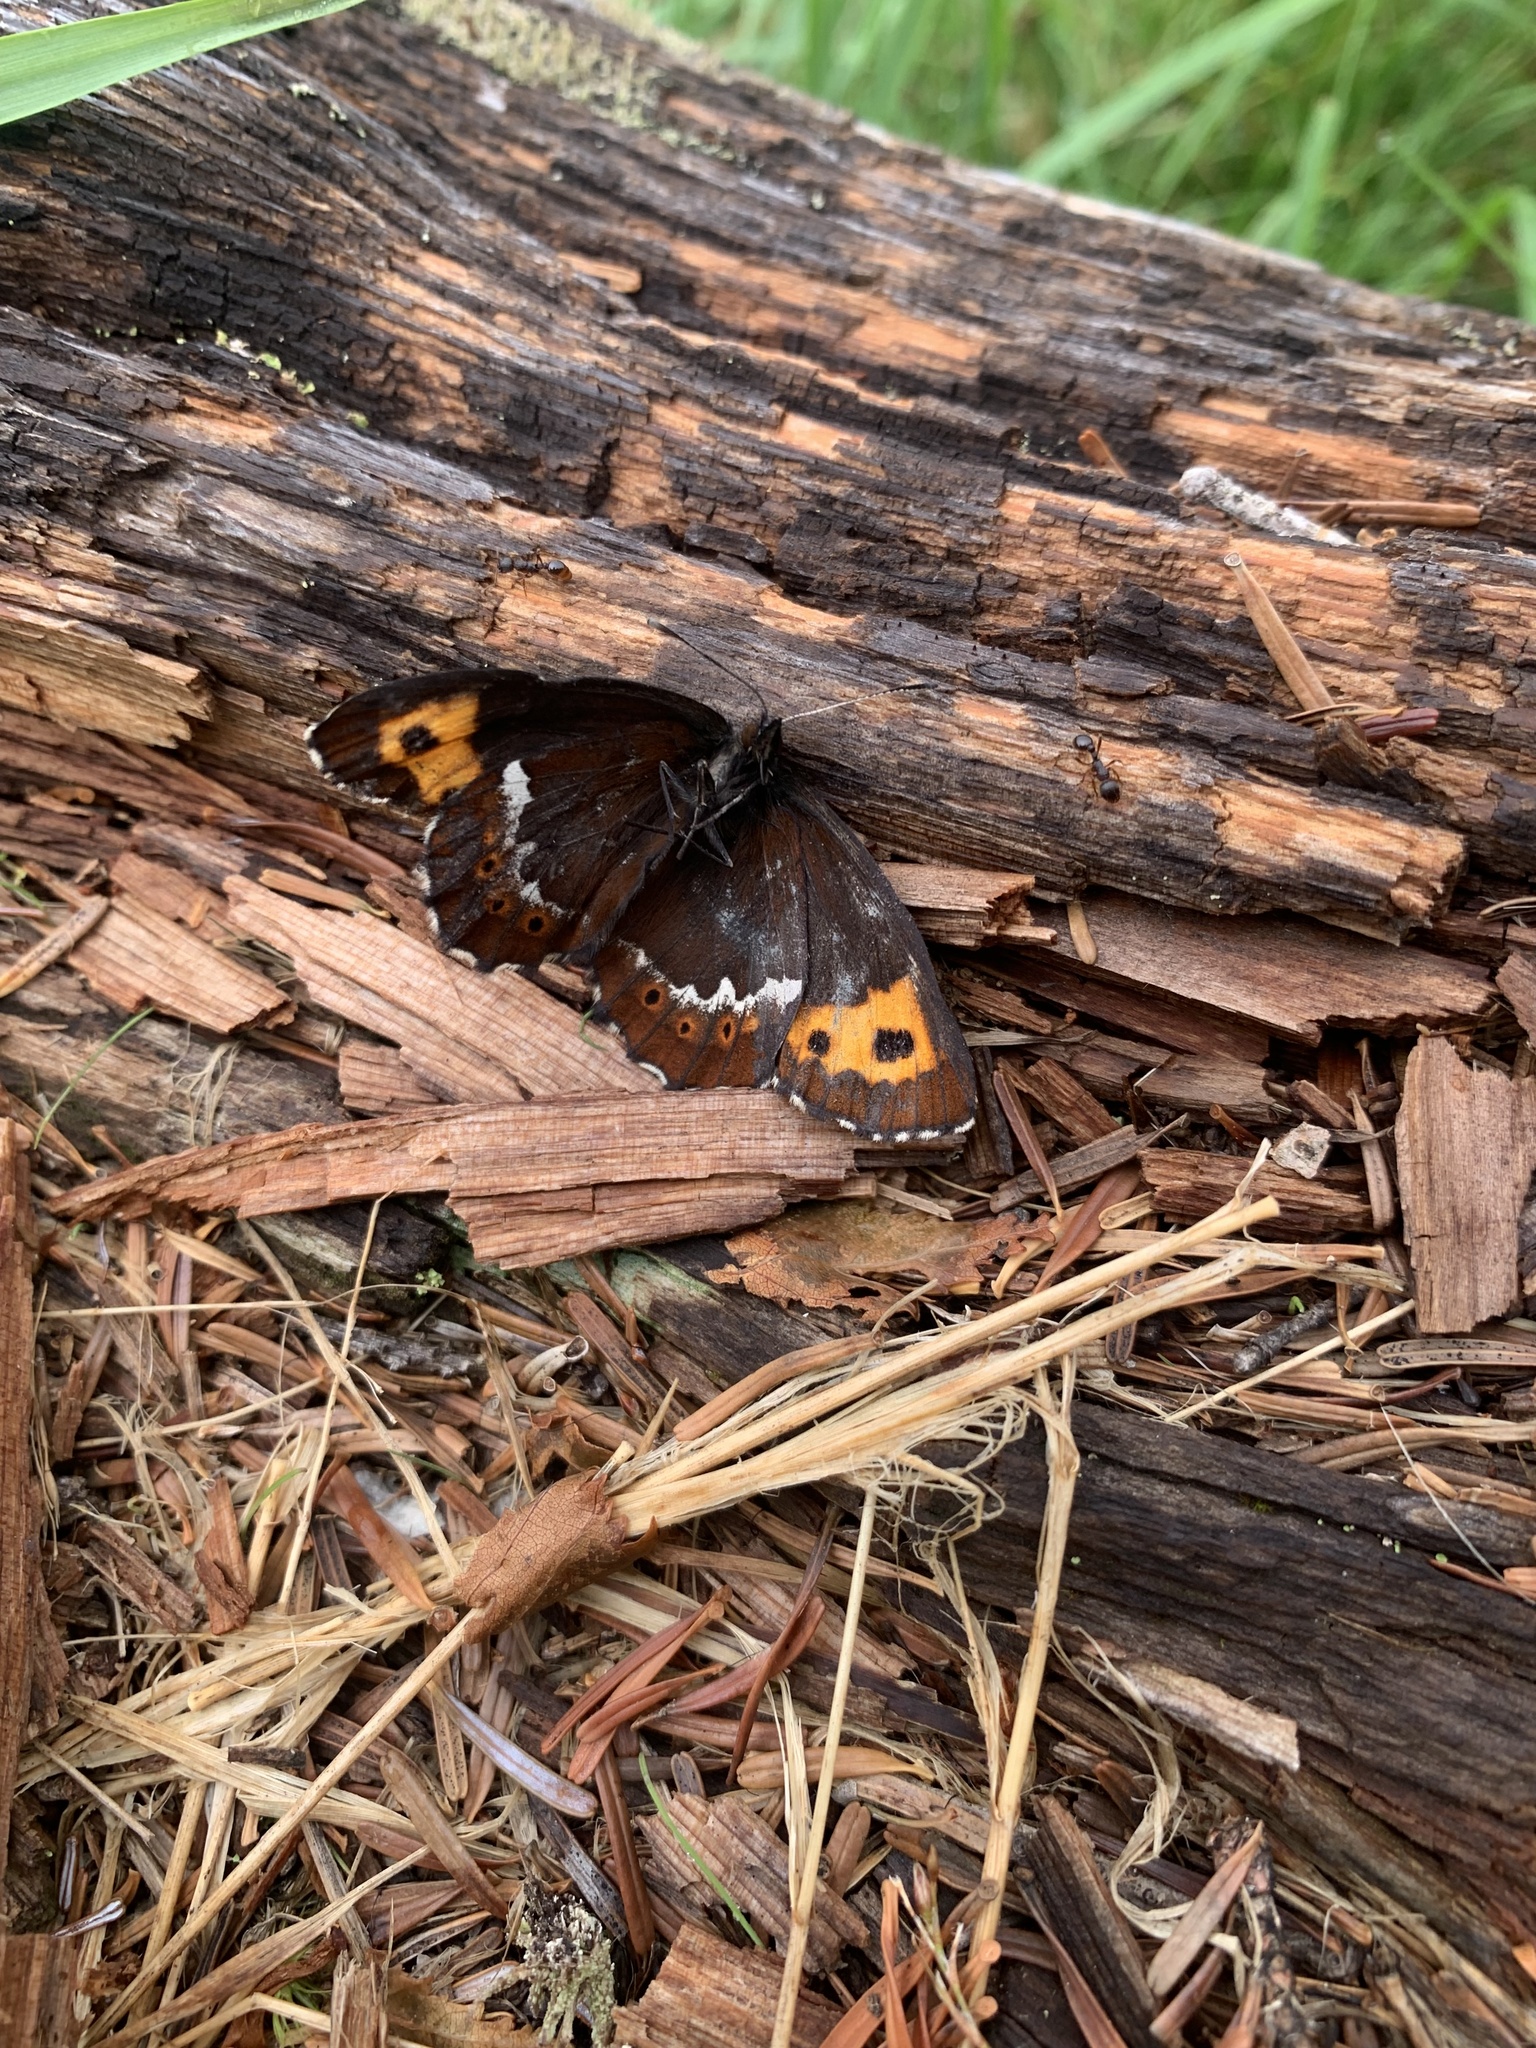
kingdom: Animalia
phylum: Arthropoda
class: Insecta
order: Lepidoptera
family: Nymphalidae
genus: Erebia
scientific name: Erebia ligea
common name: Arran brown
